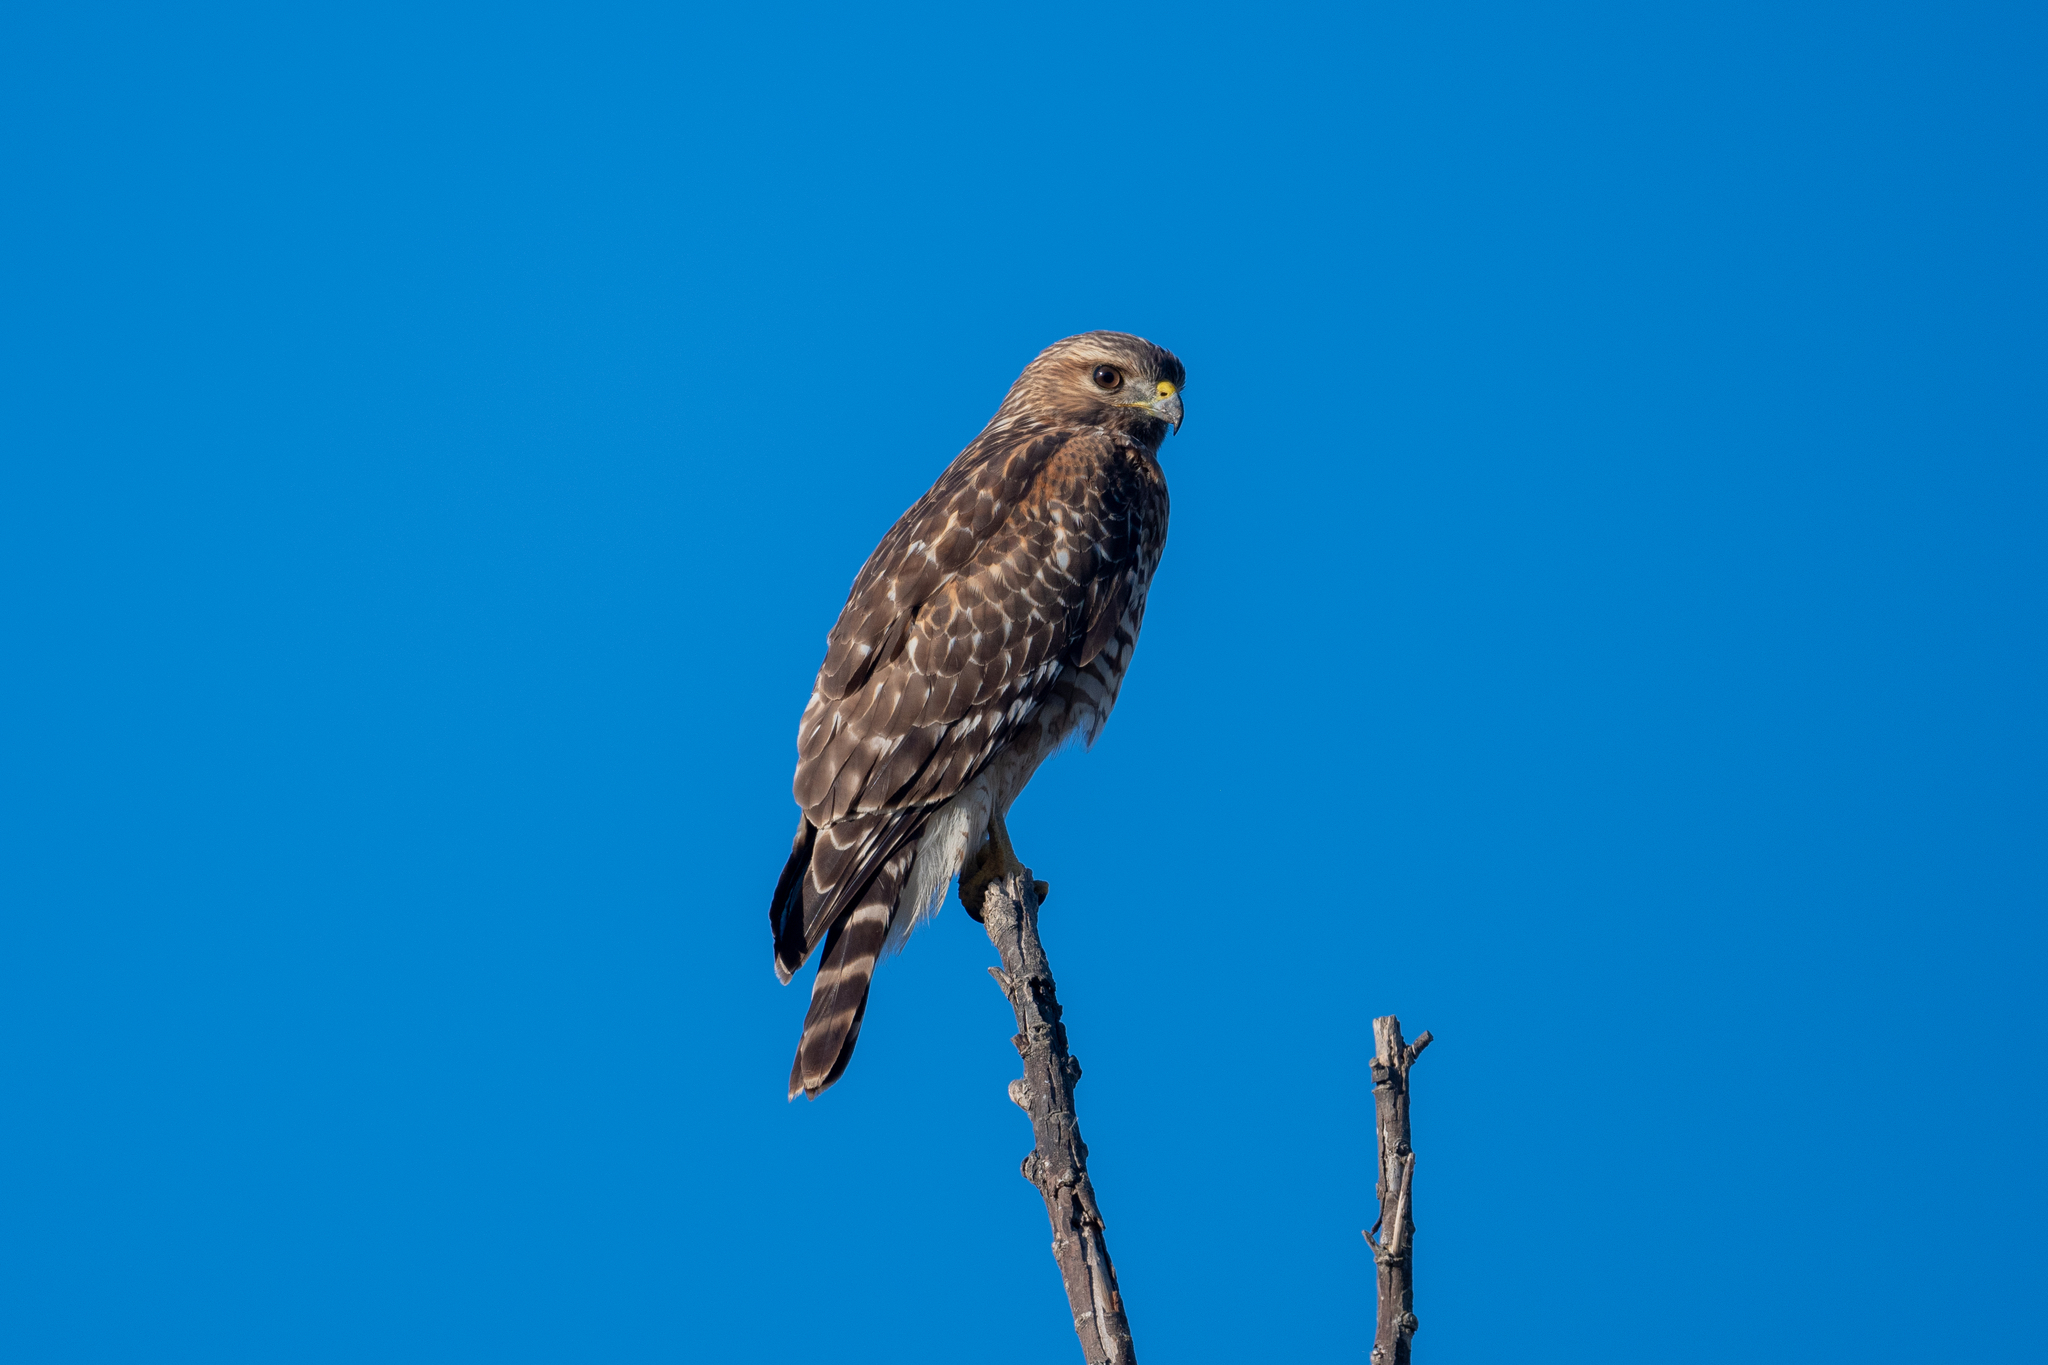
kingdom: Animalia
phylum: Chordata
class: Aves
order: Accipitriformes
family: Accipitridae
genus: Buteo
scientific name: Buteo lineatus
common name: Red-shouldered hawk
